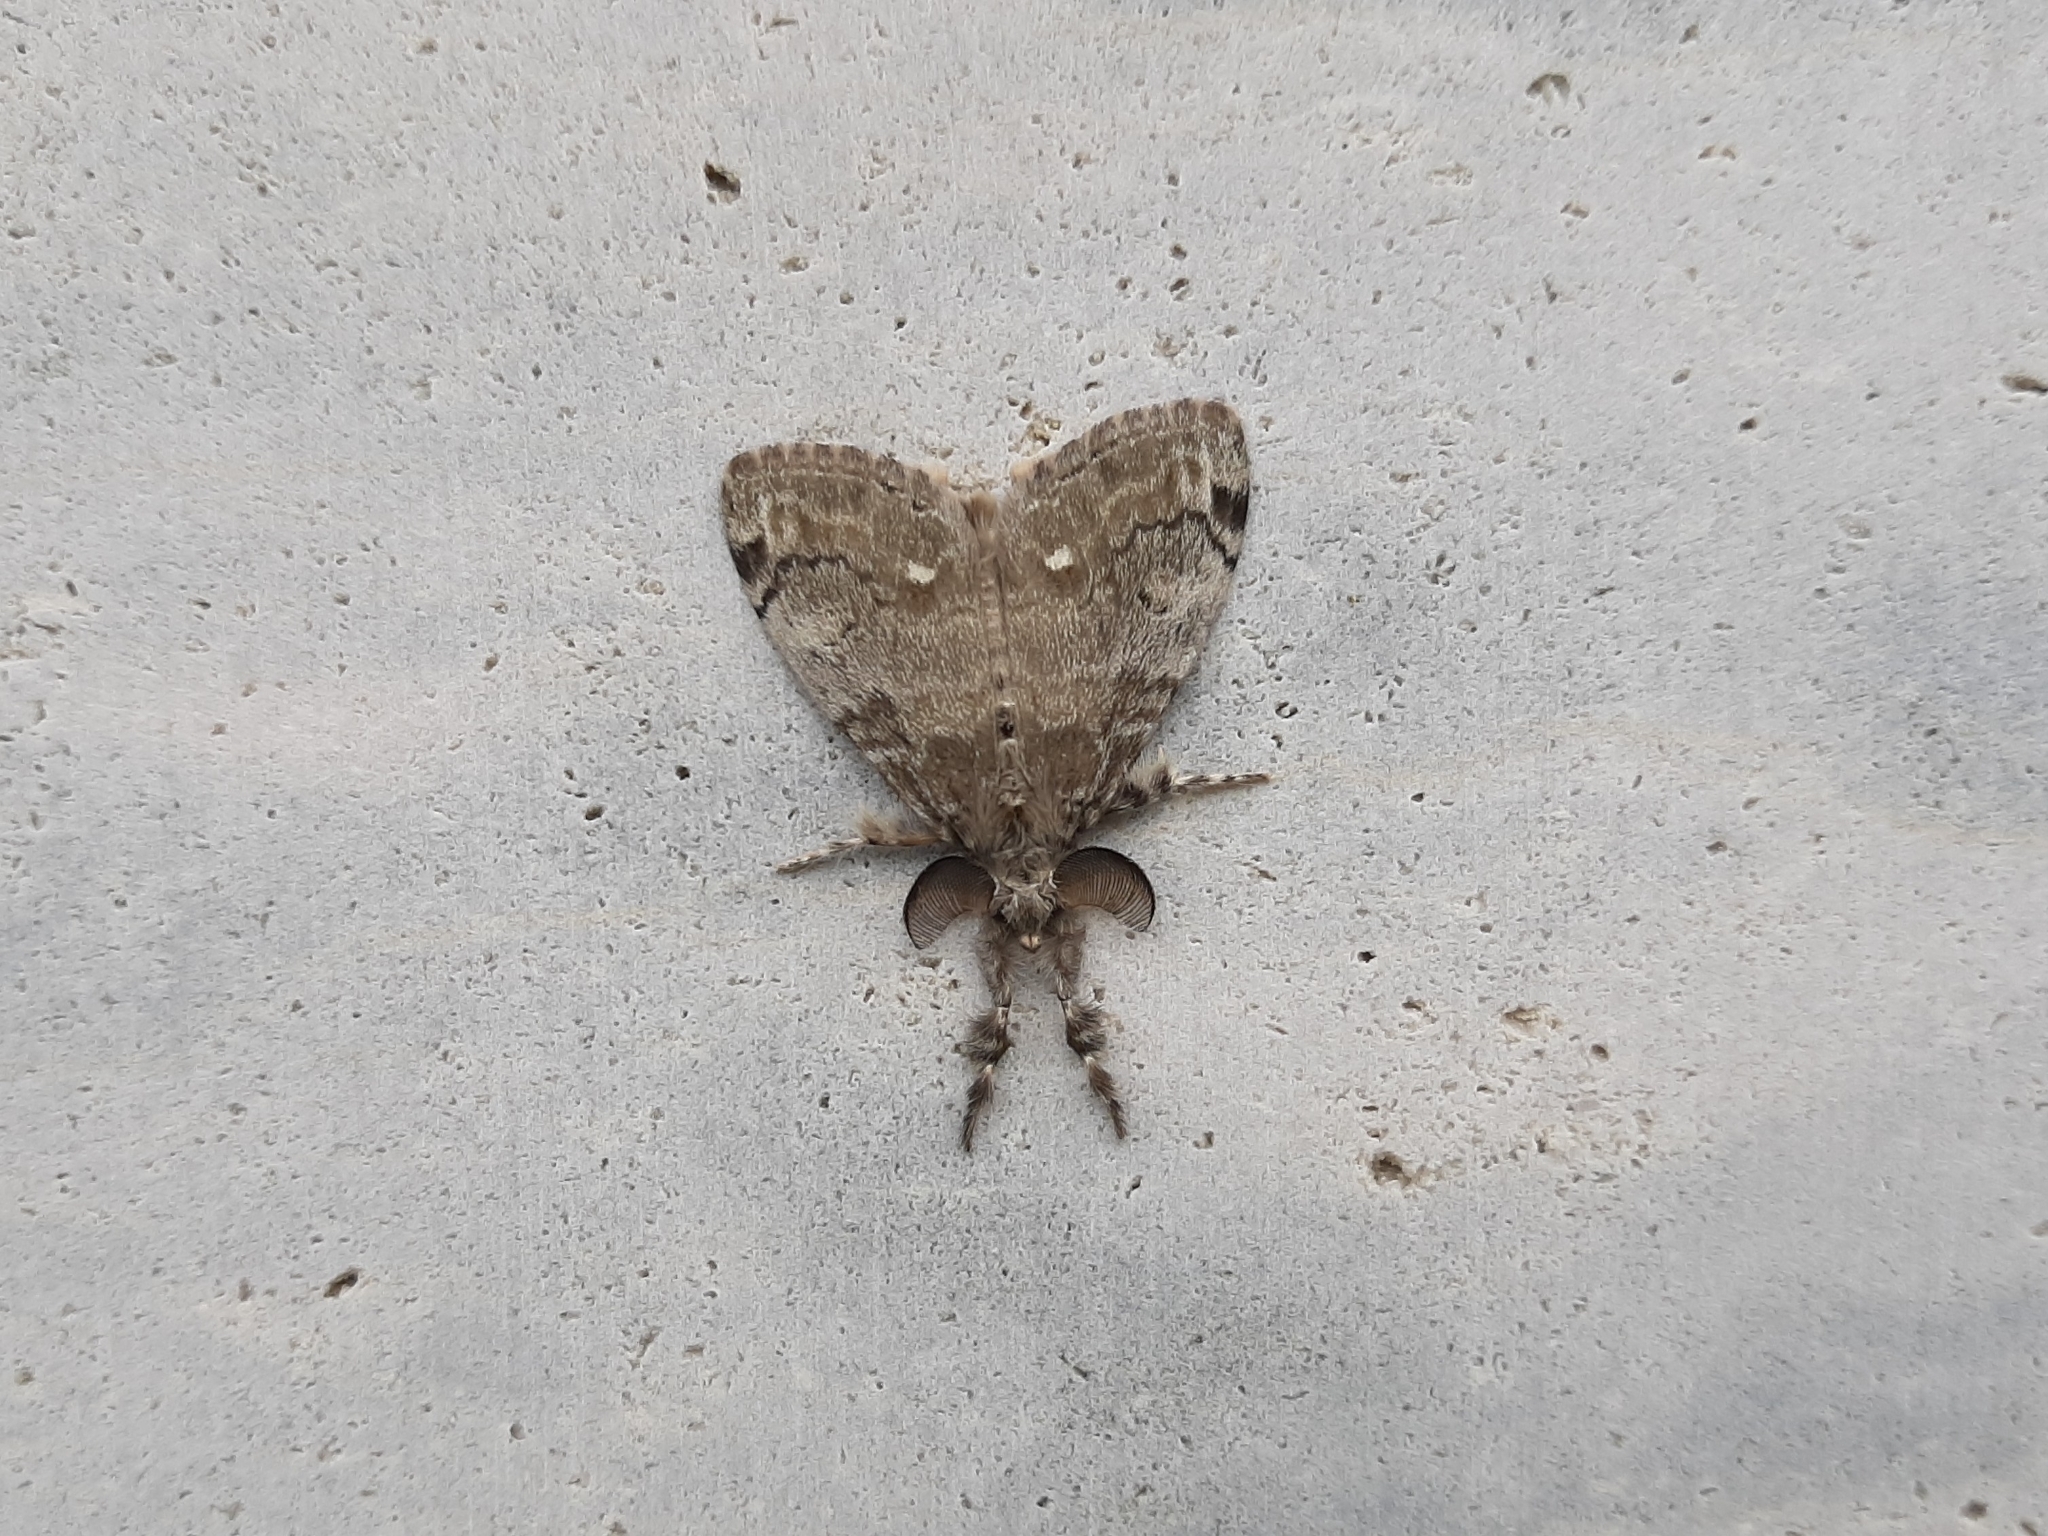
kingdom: Animalia
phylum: Arthropoda
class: Insecta
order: Lepidoptera
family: Erebidae
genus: Orgyia
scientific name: Orgyia leucostigma
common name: White-marked tussock moth
